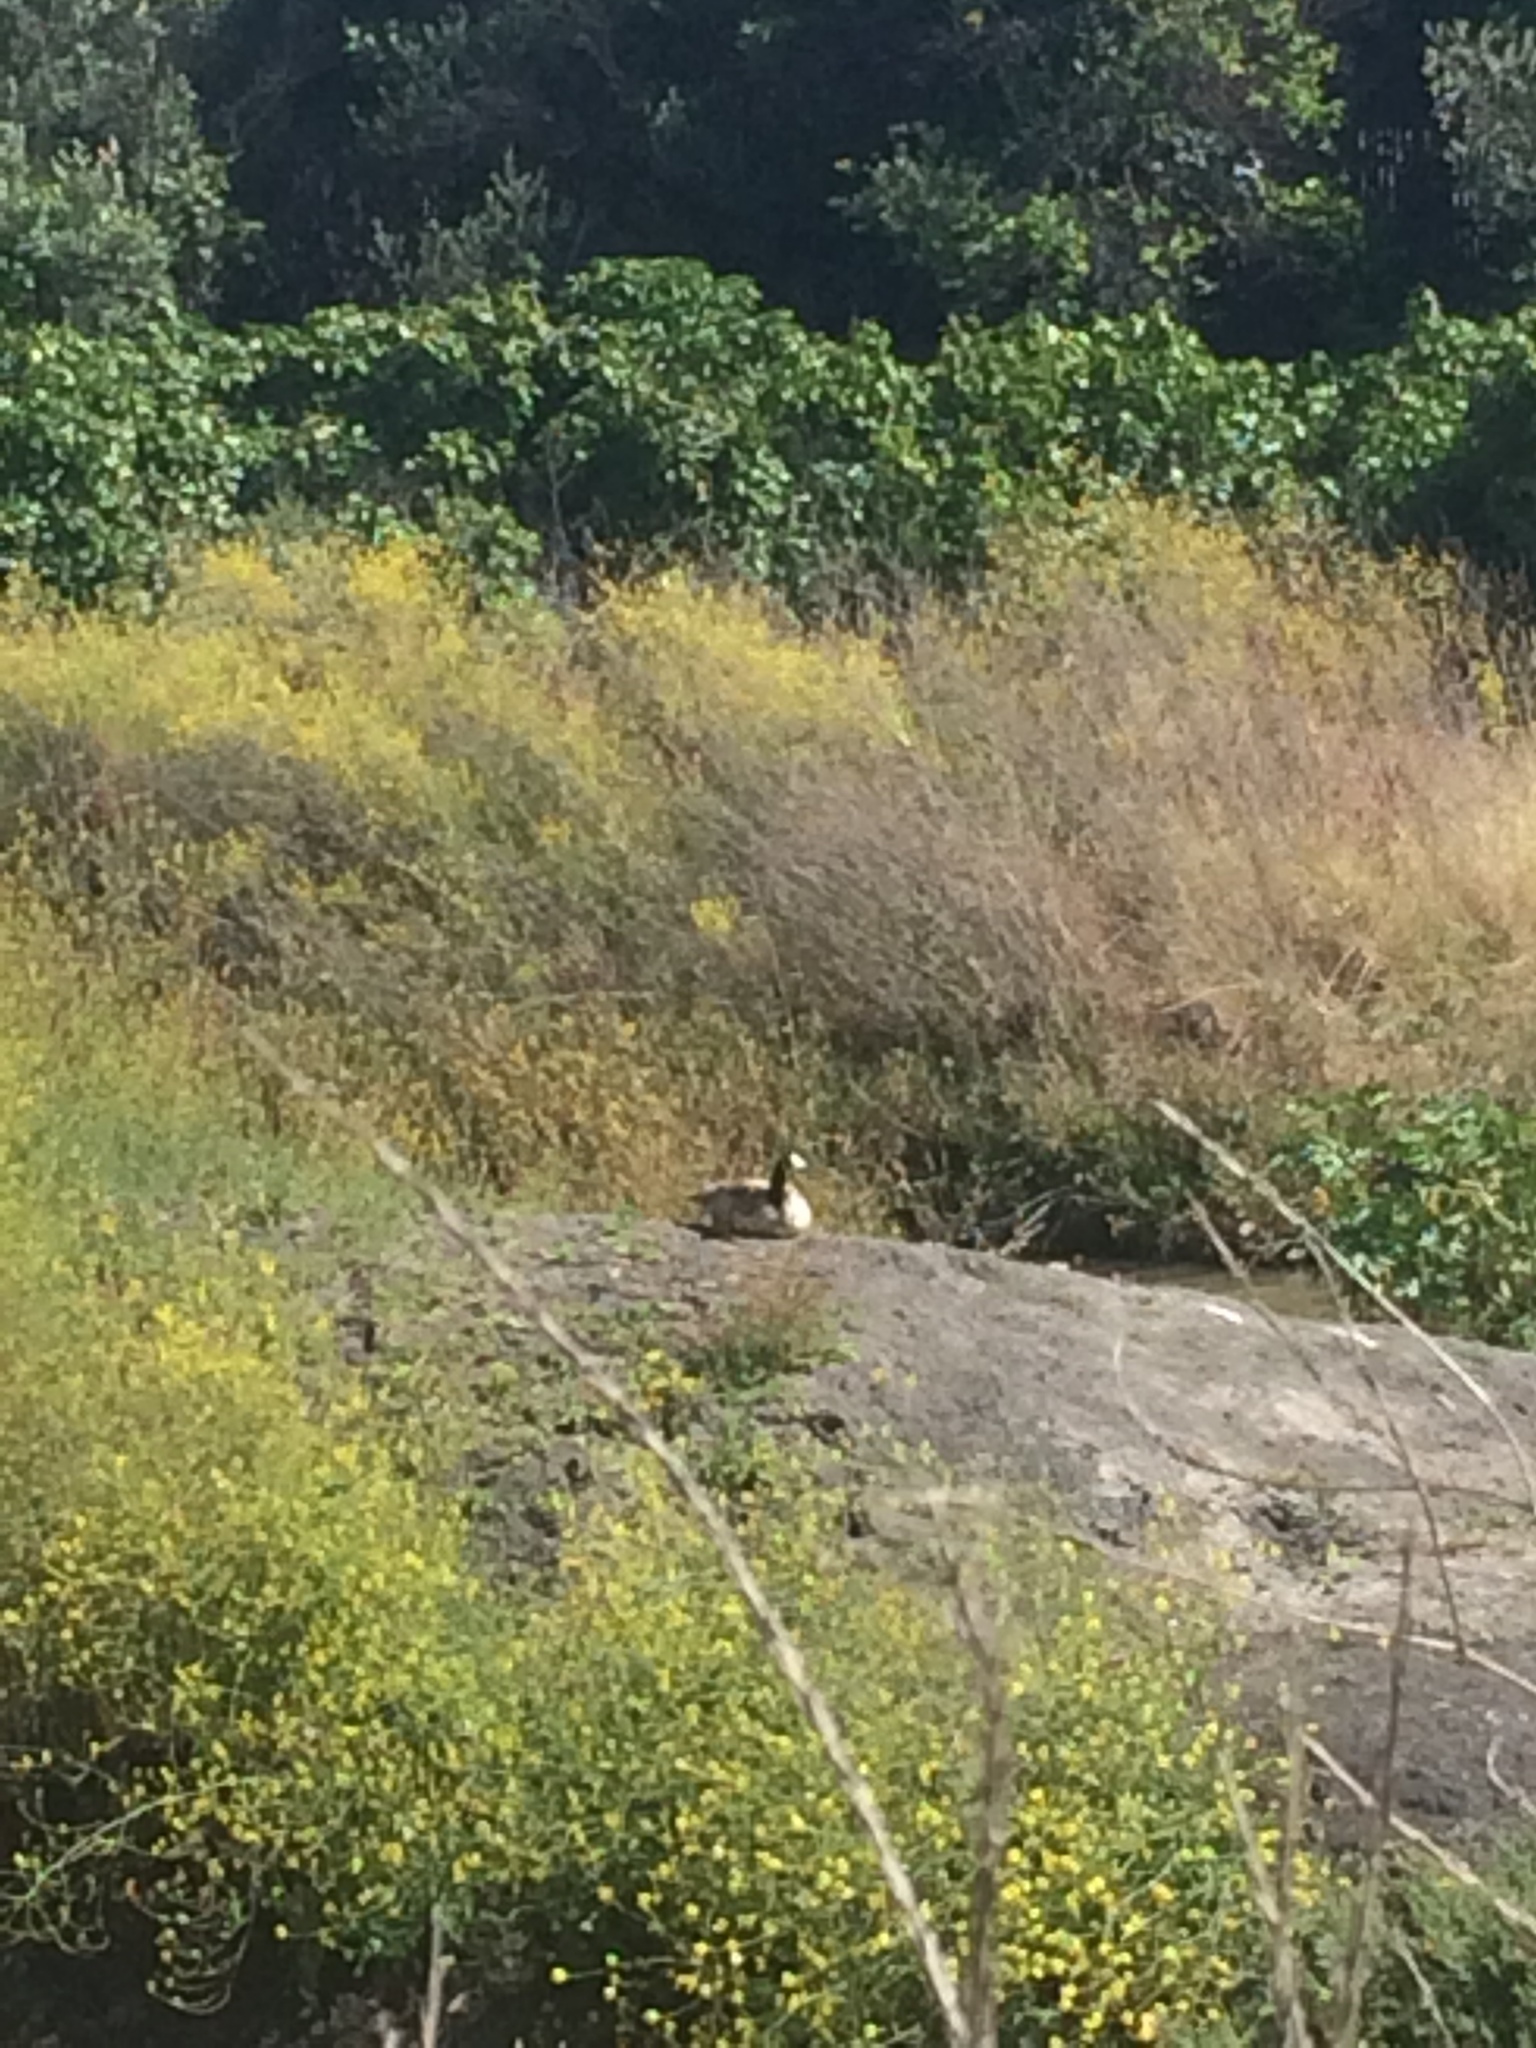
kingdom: Animalia
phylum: Chordata
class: Aves
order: Anseriformes
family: Anatidae
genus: Branta
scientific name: Branta canadensis
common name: Canada goose
